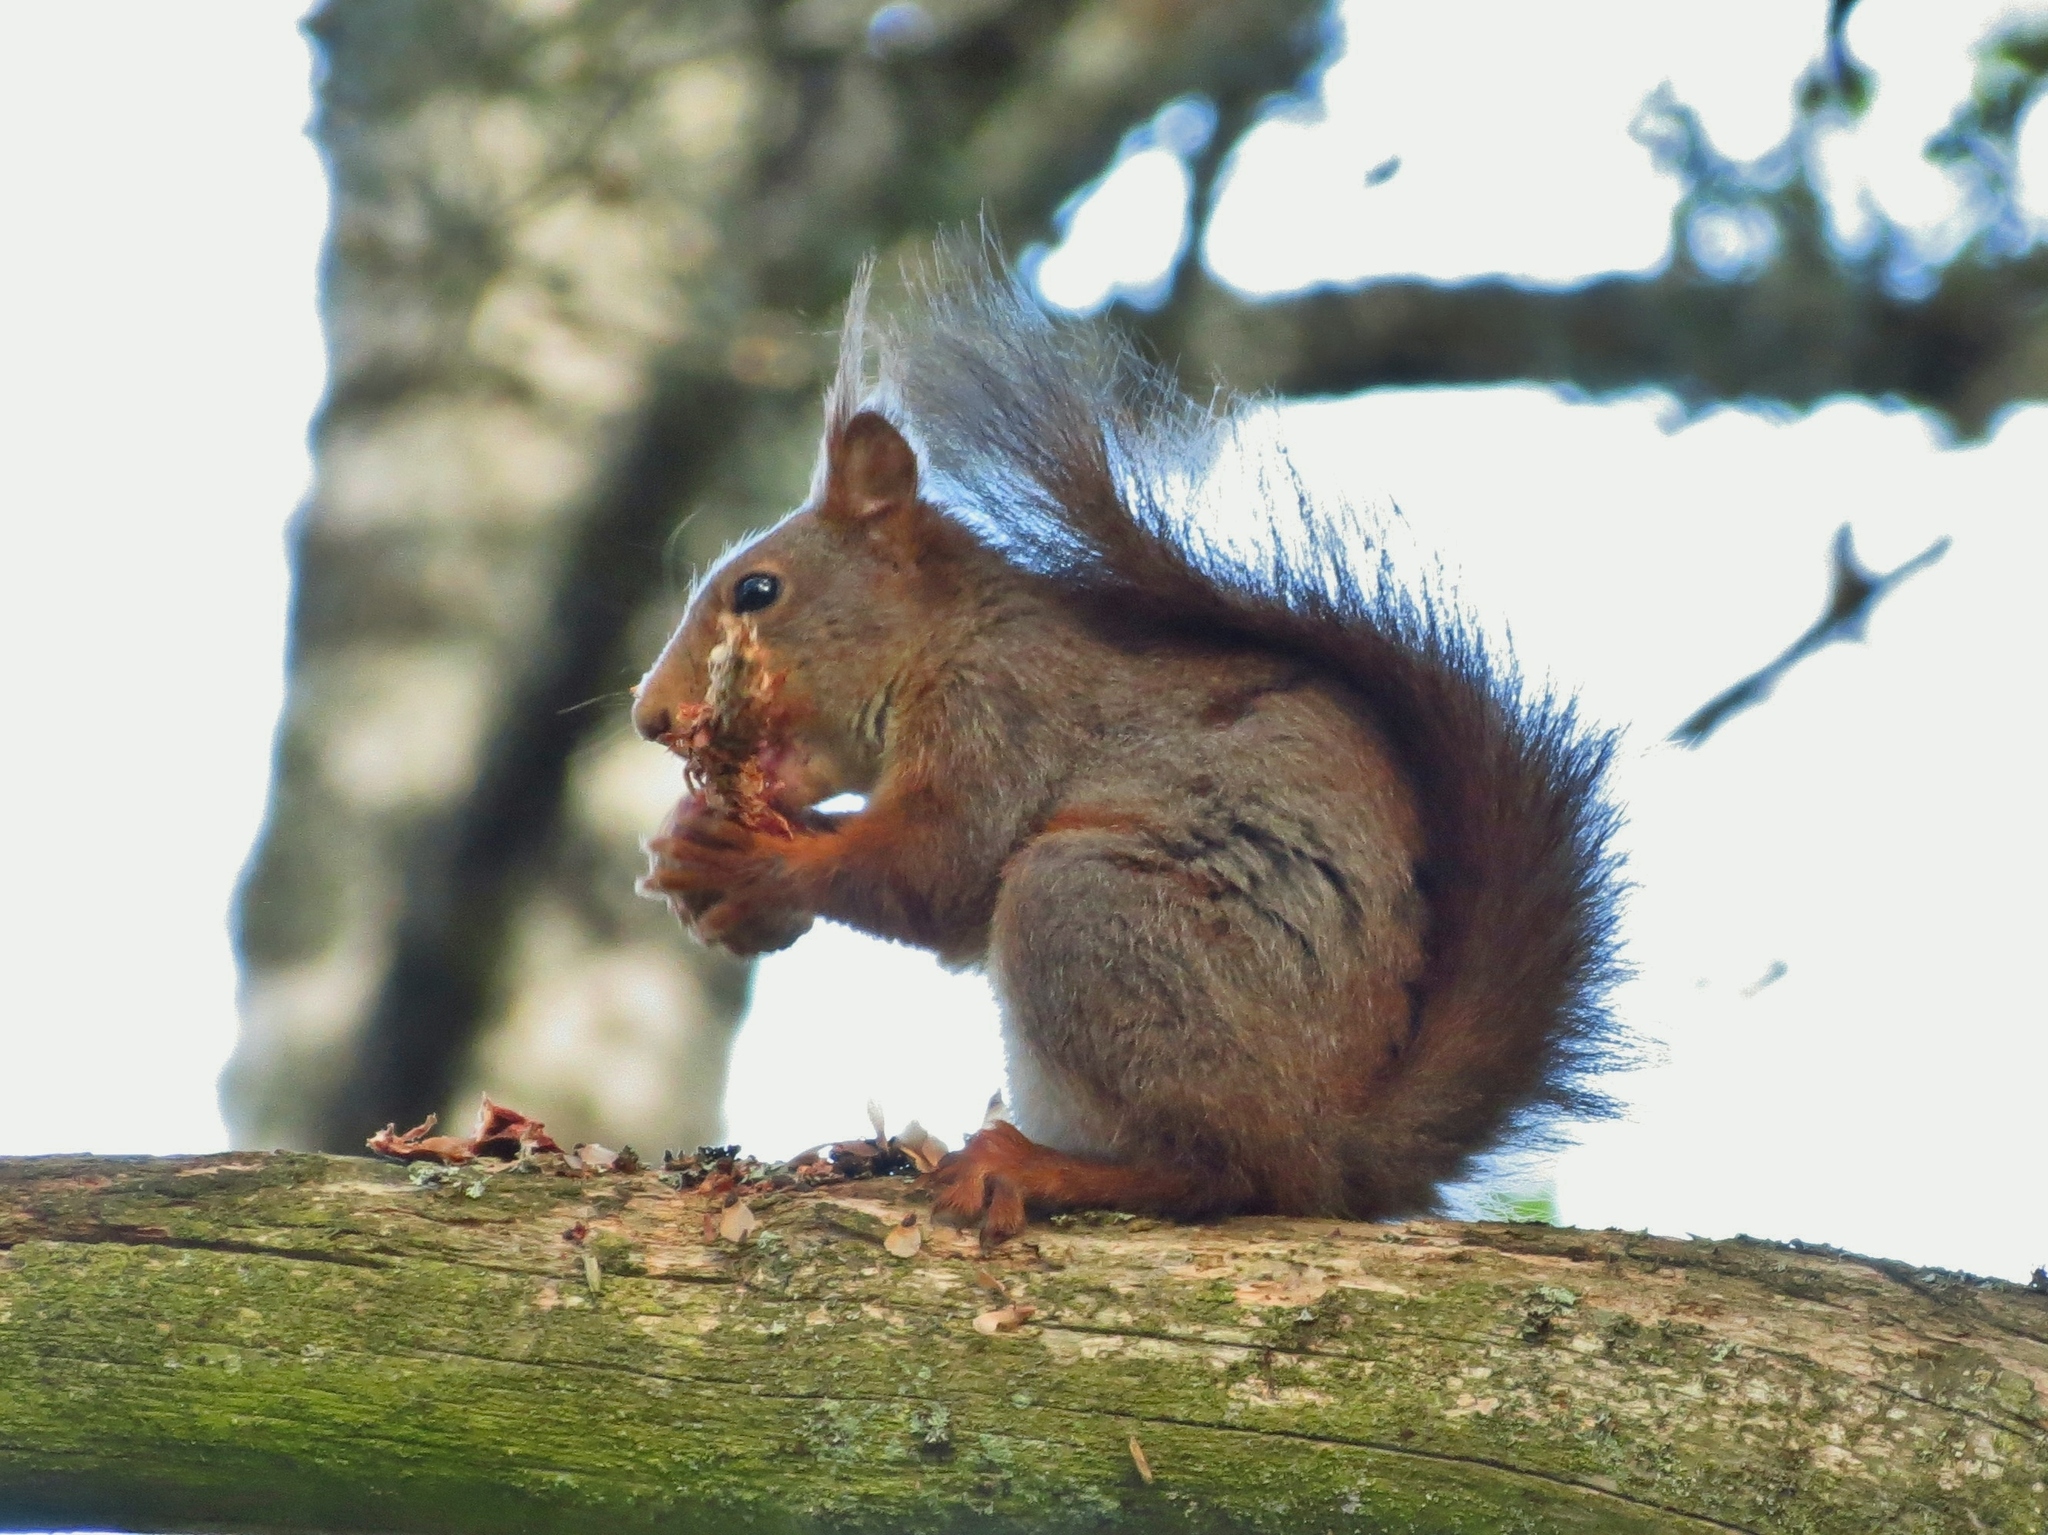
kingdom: Animalia
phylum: Chordata
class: Mammalia
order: Rodentia
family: Sciuridae
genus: Sciurus
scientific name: Sciurus vulgaris
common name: Eurasian red squirrel
